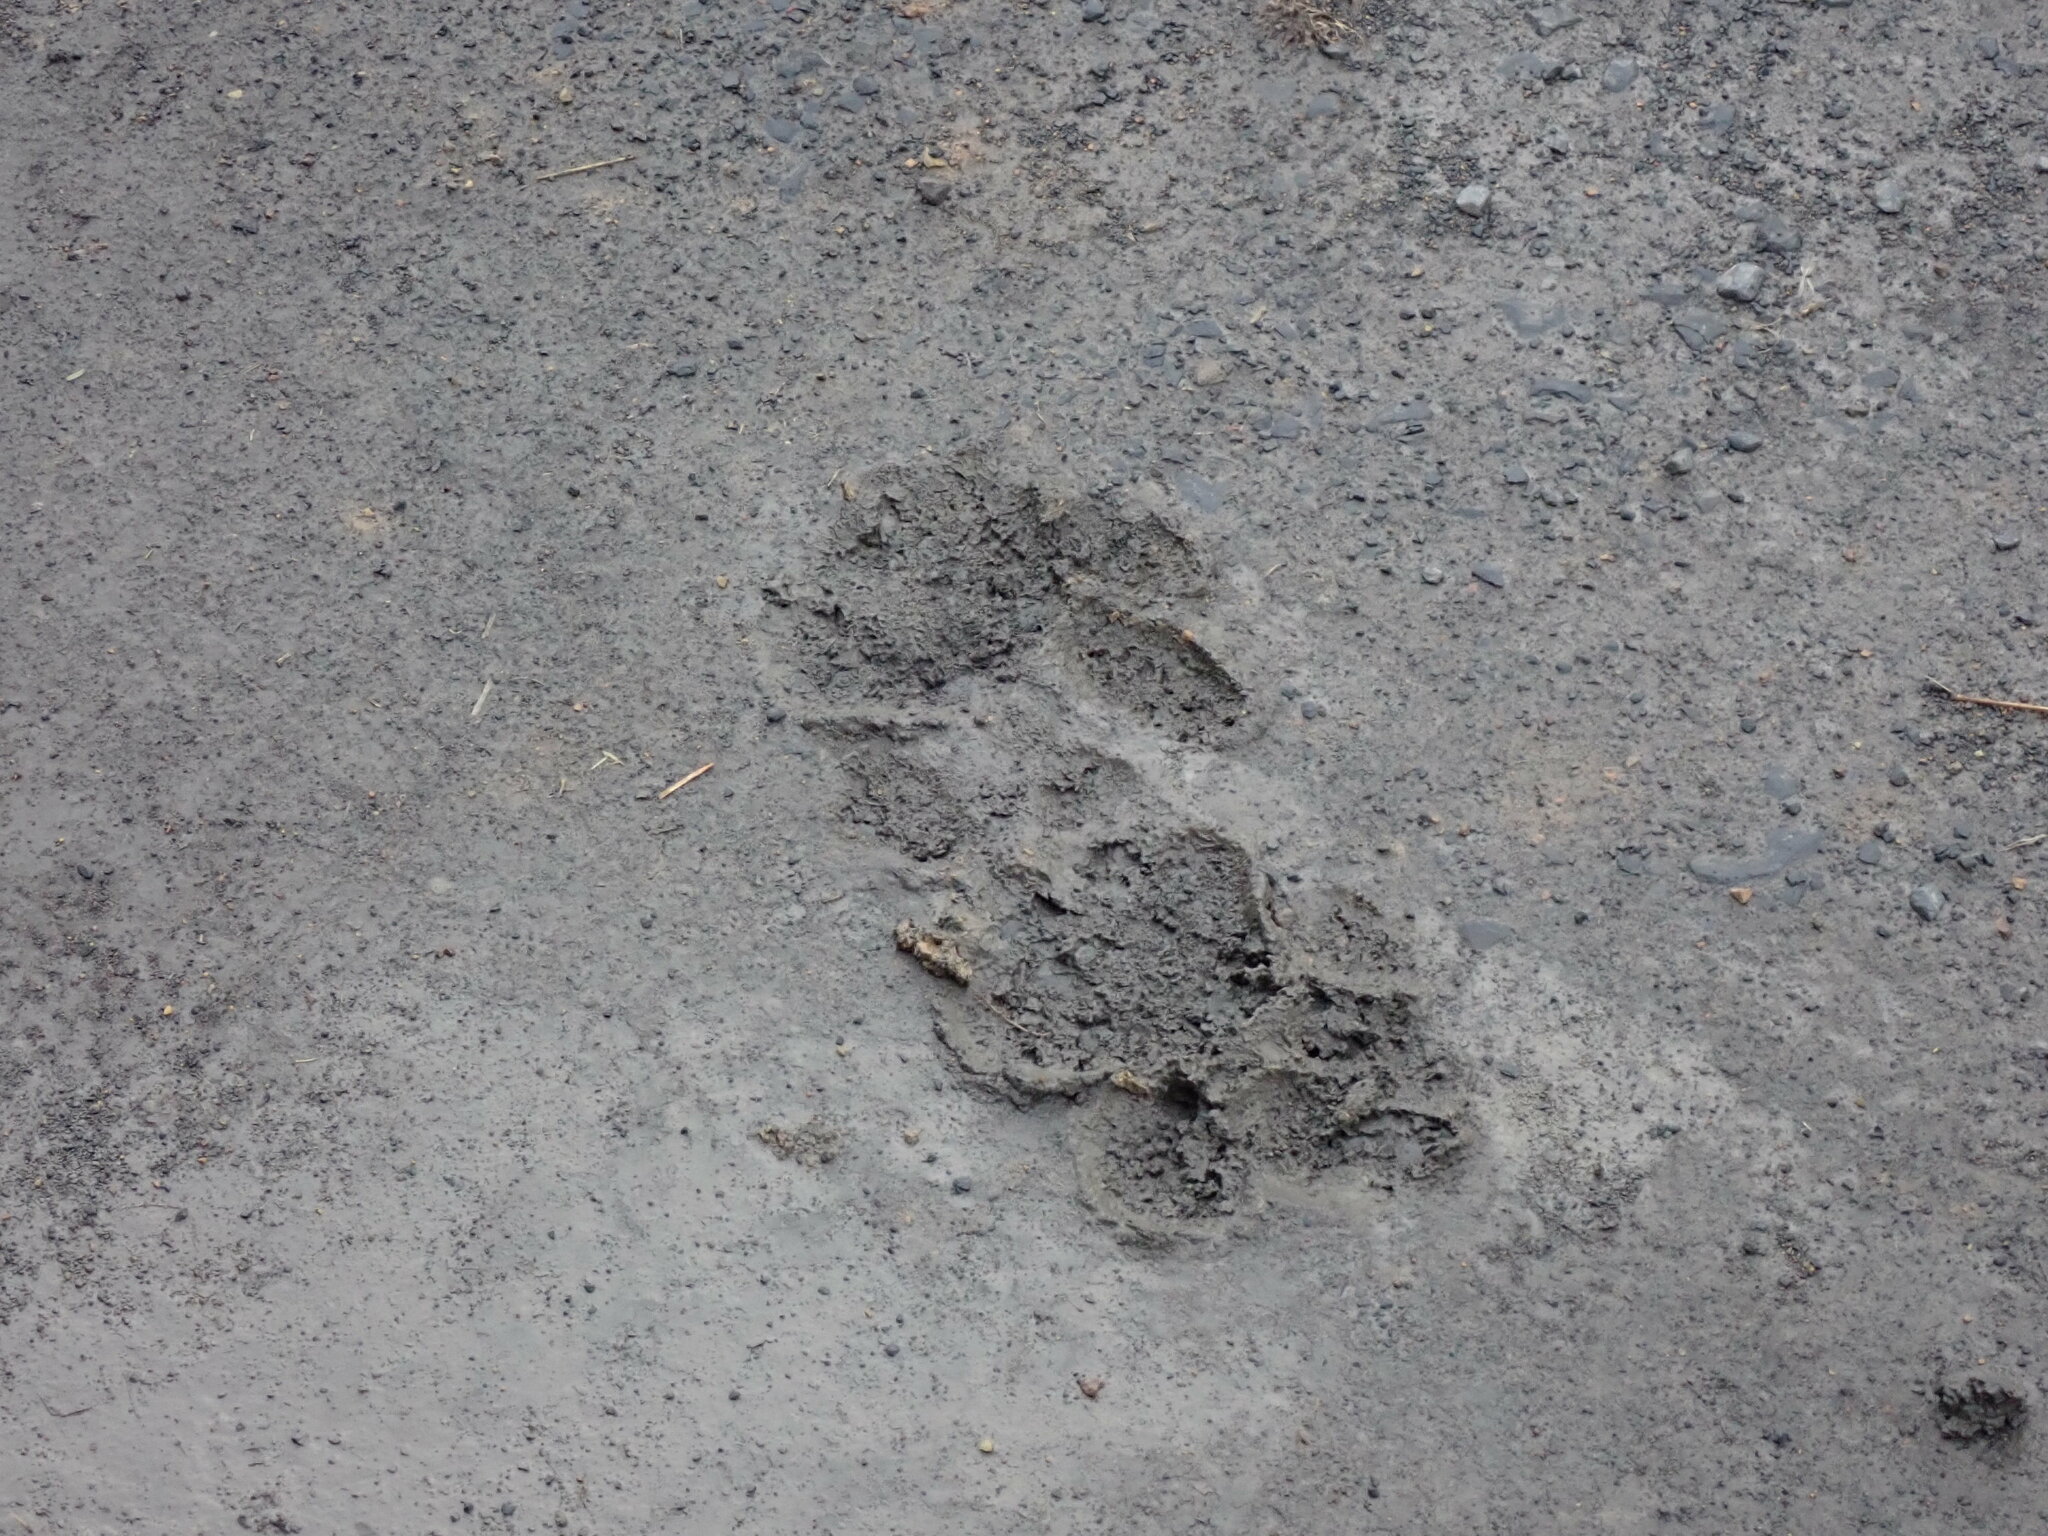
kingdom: Animalia
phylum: Chordata
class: Mammalia
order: Carnivora
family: Felidae
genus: Panthera
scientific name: Panthera leo
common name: Lion
